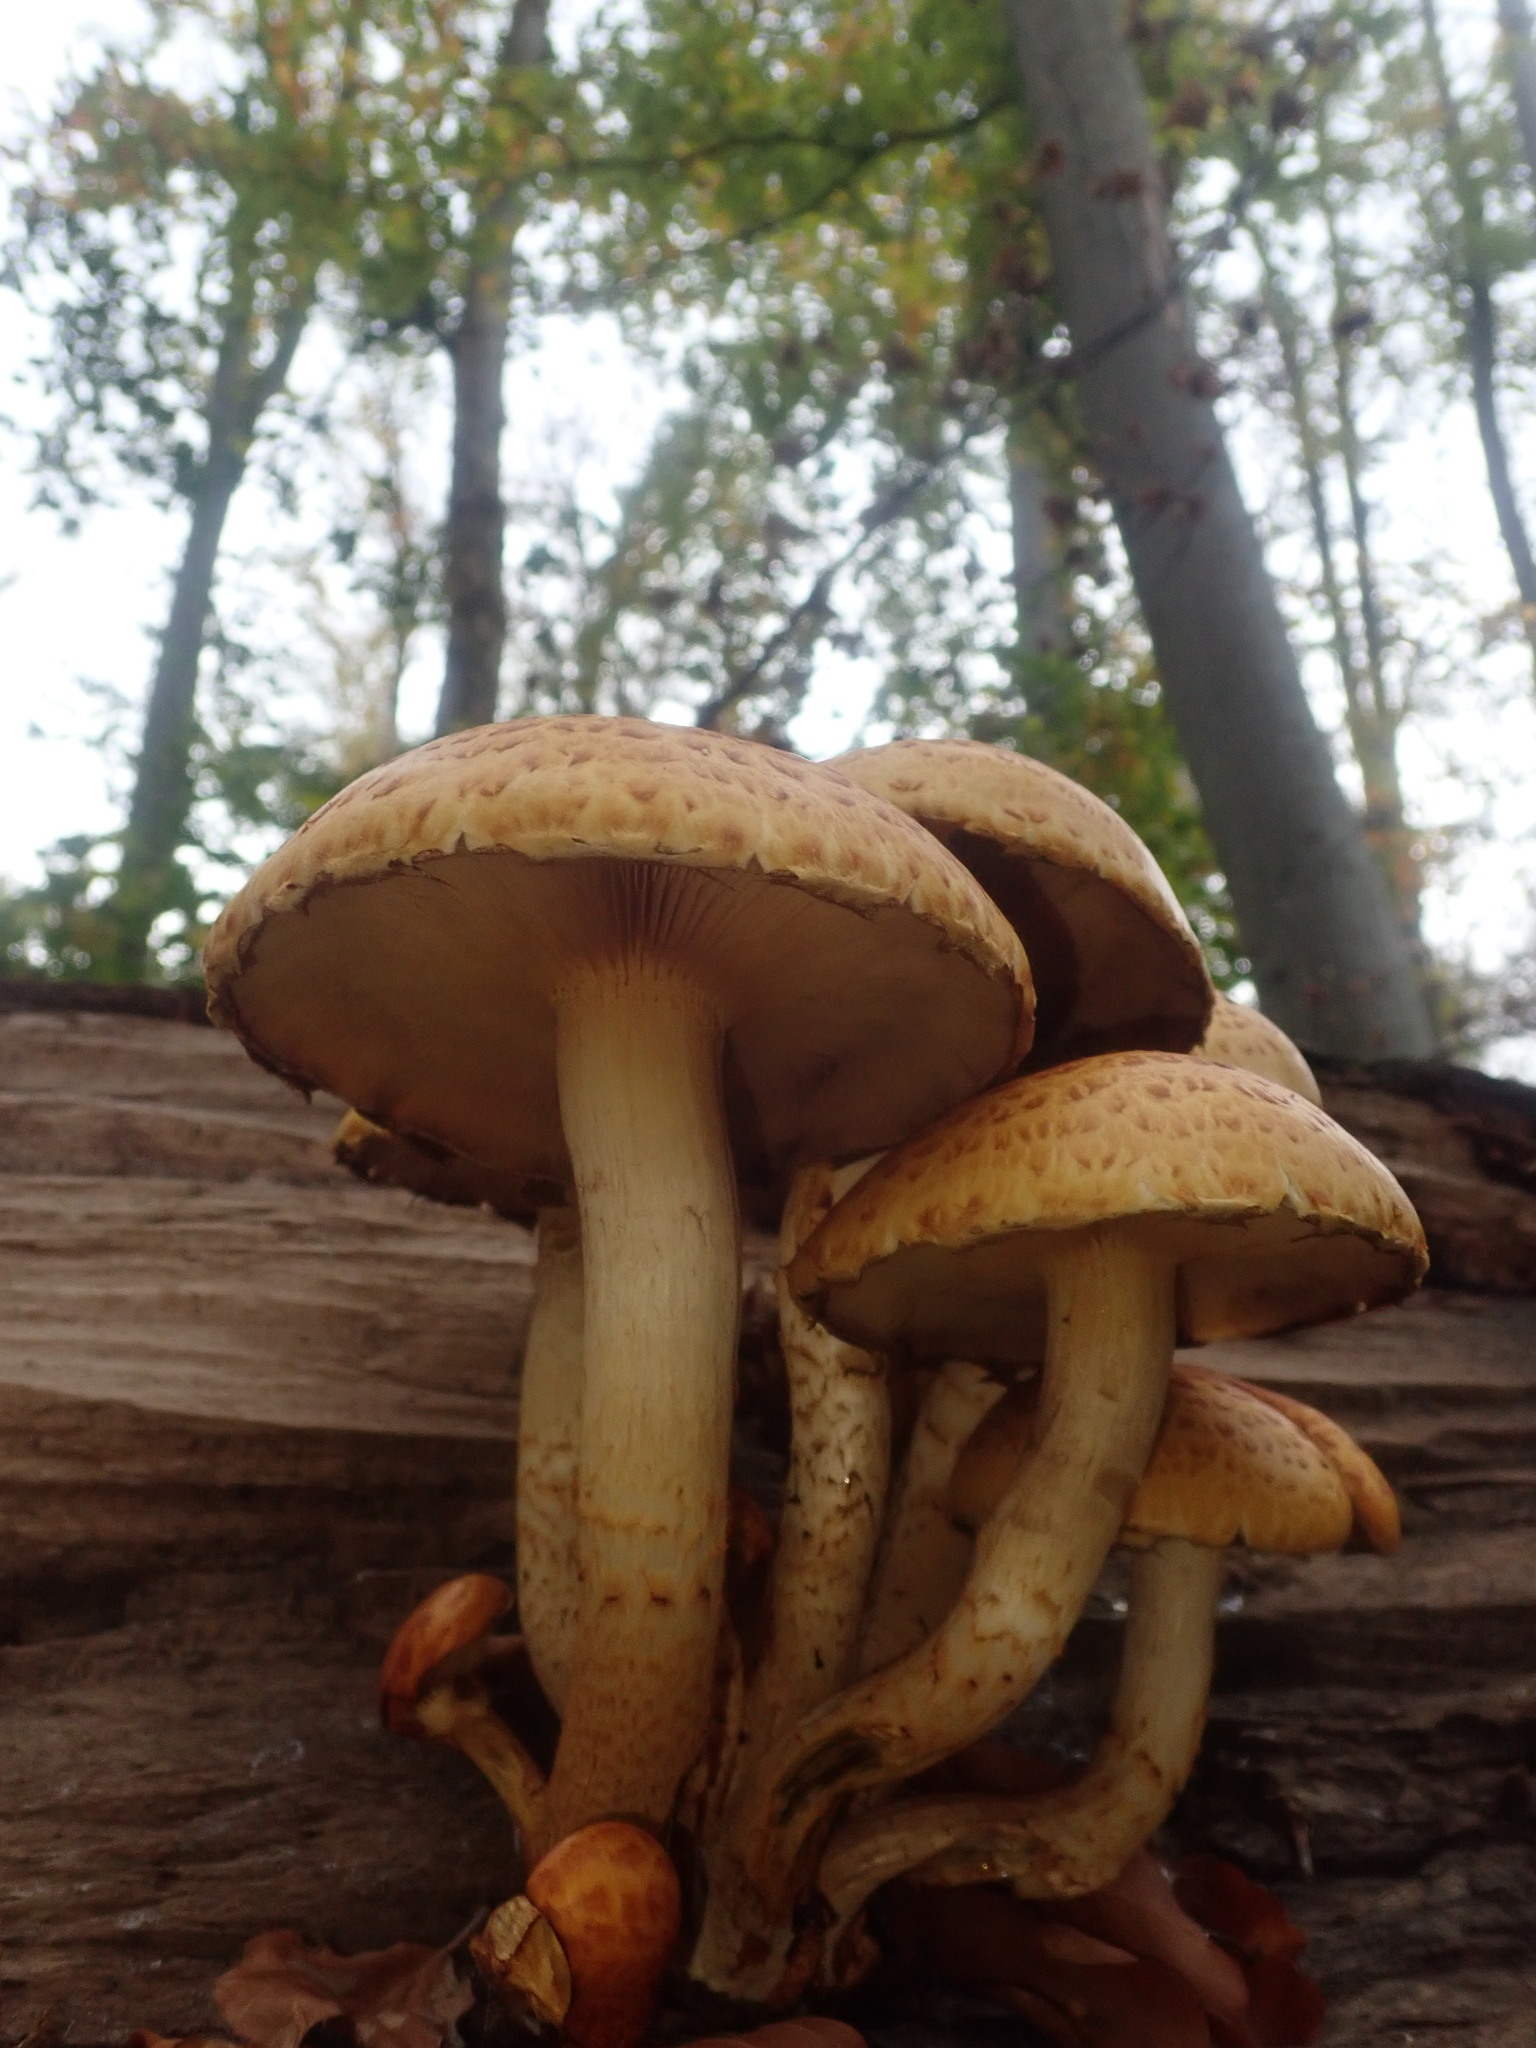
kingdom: Fungi
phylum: Basidiomycota
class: Agaricomycetes
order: Agaricales
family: Strophariaceae
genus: Pholiota
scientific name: Pholiota aurivella
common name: Golden scalycap
